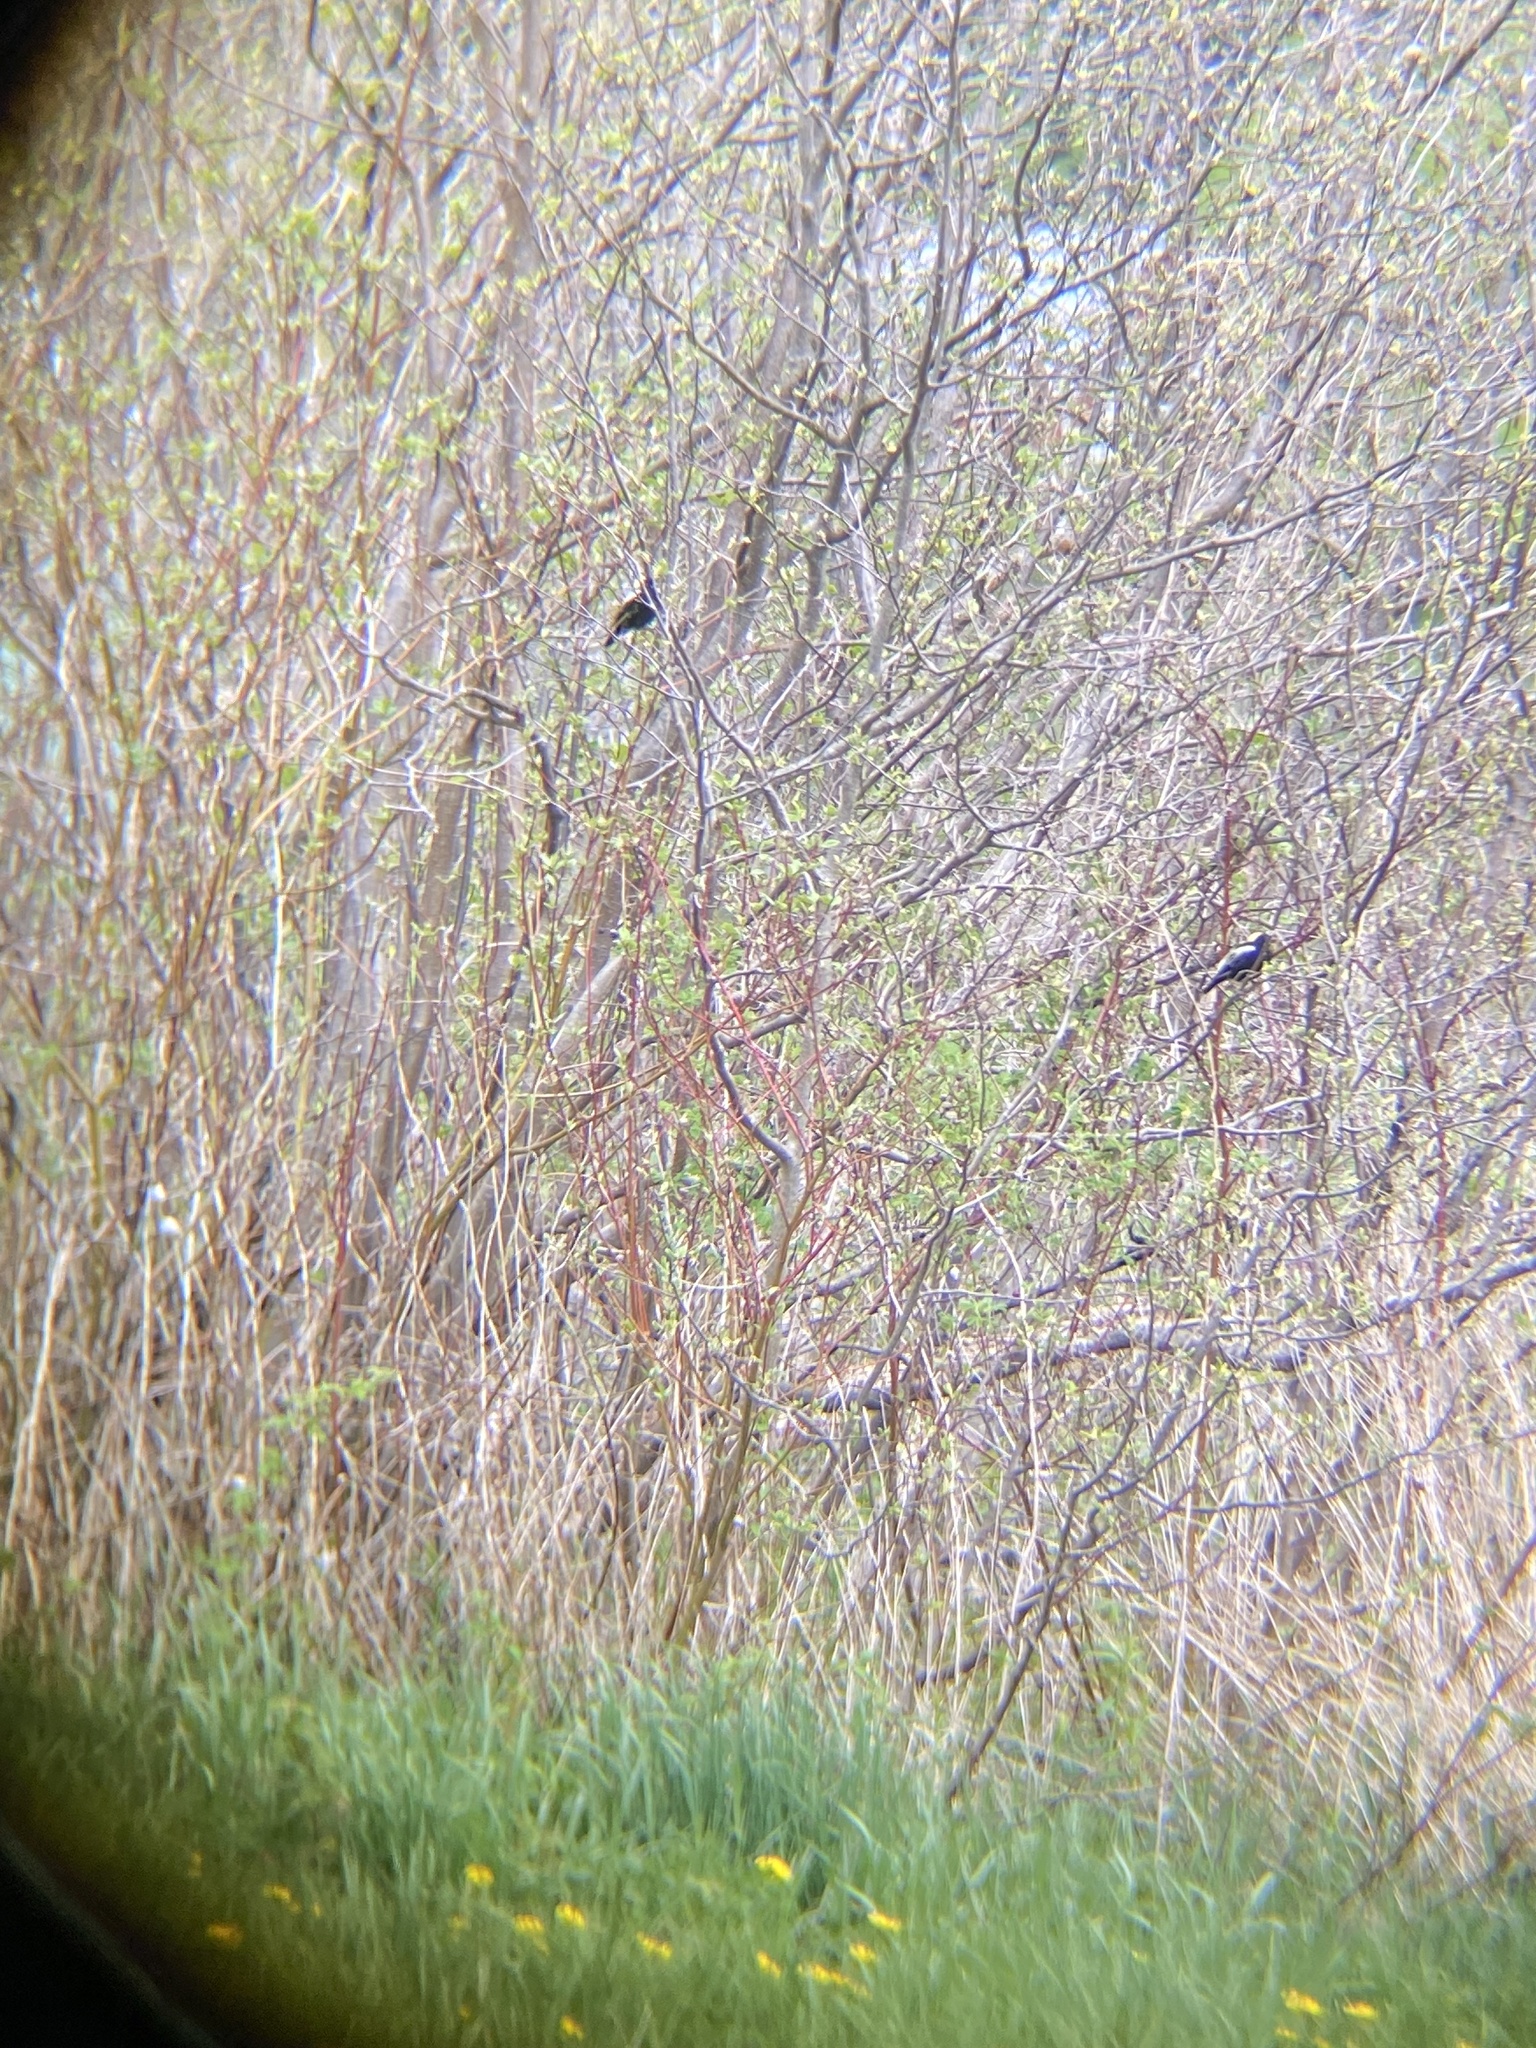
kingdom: Animalia
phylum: Chordata
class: Aves
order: Passeriformes
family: Icteridae
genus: Dolichonyx
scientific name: Dolichonyx oryzivorus
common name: Bobolink
